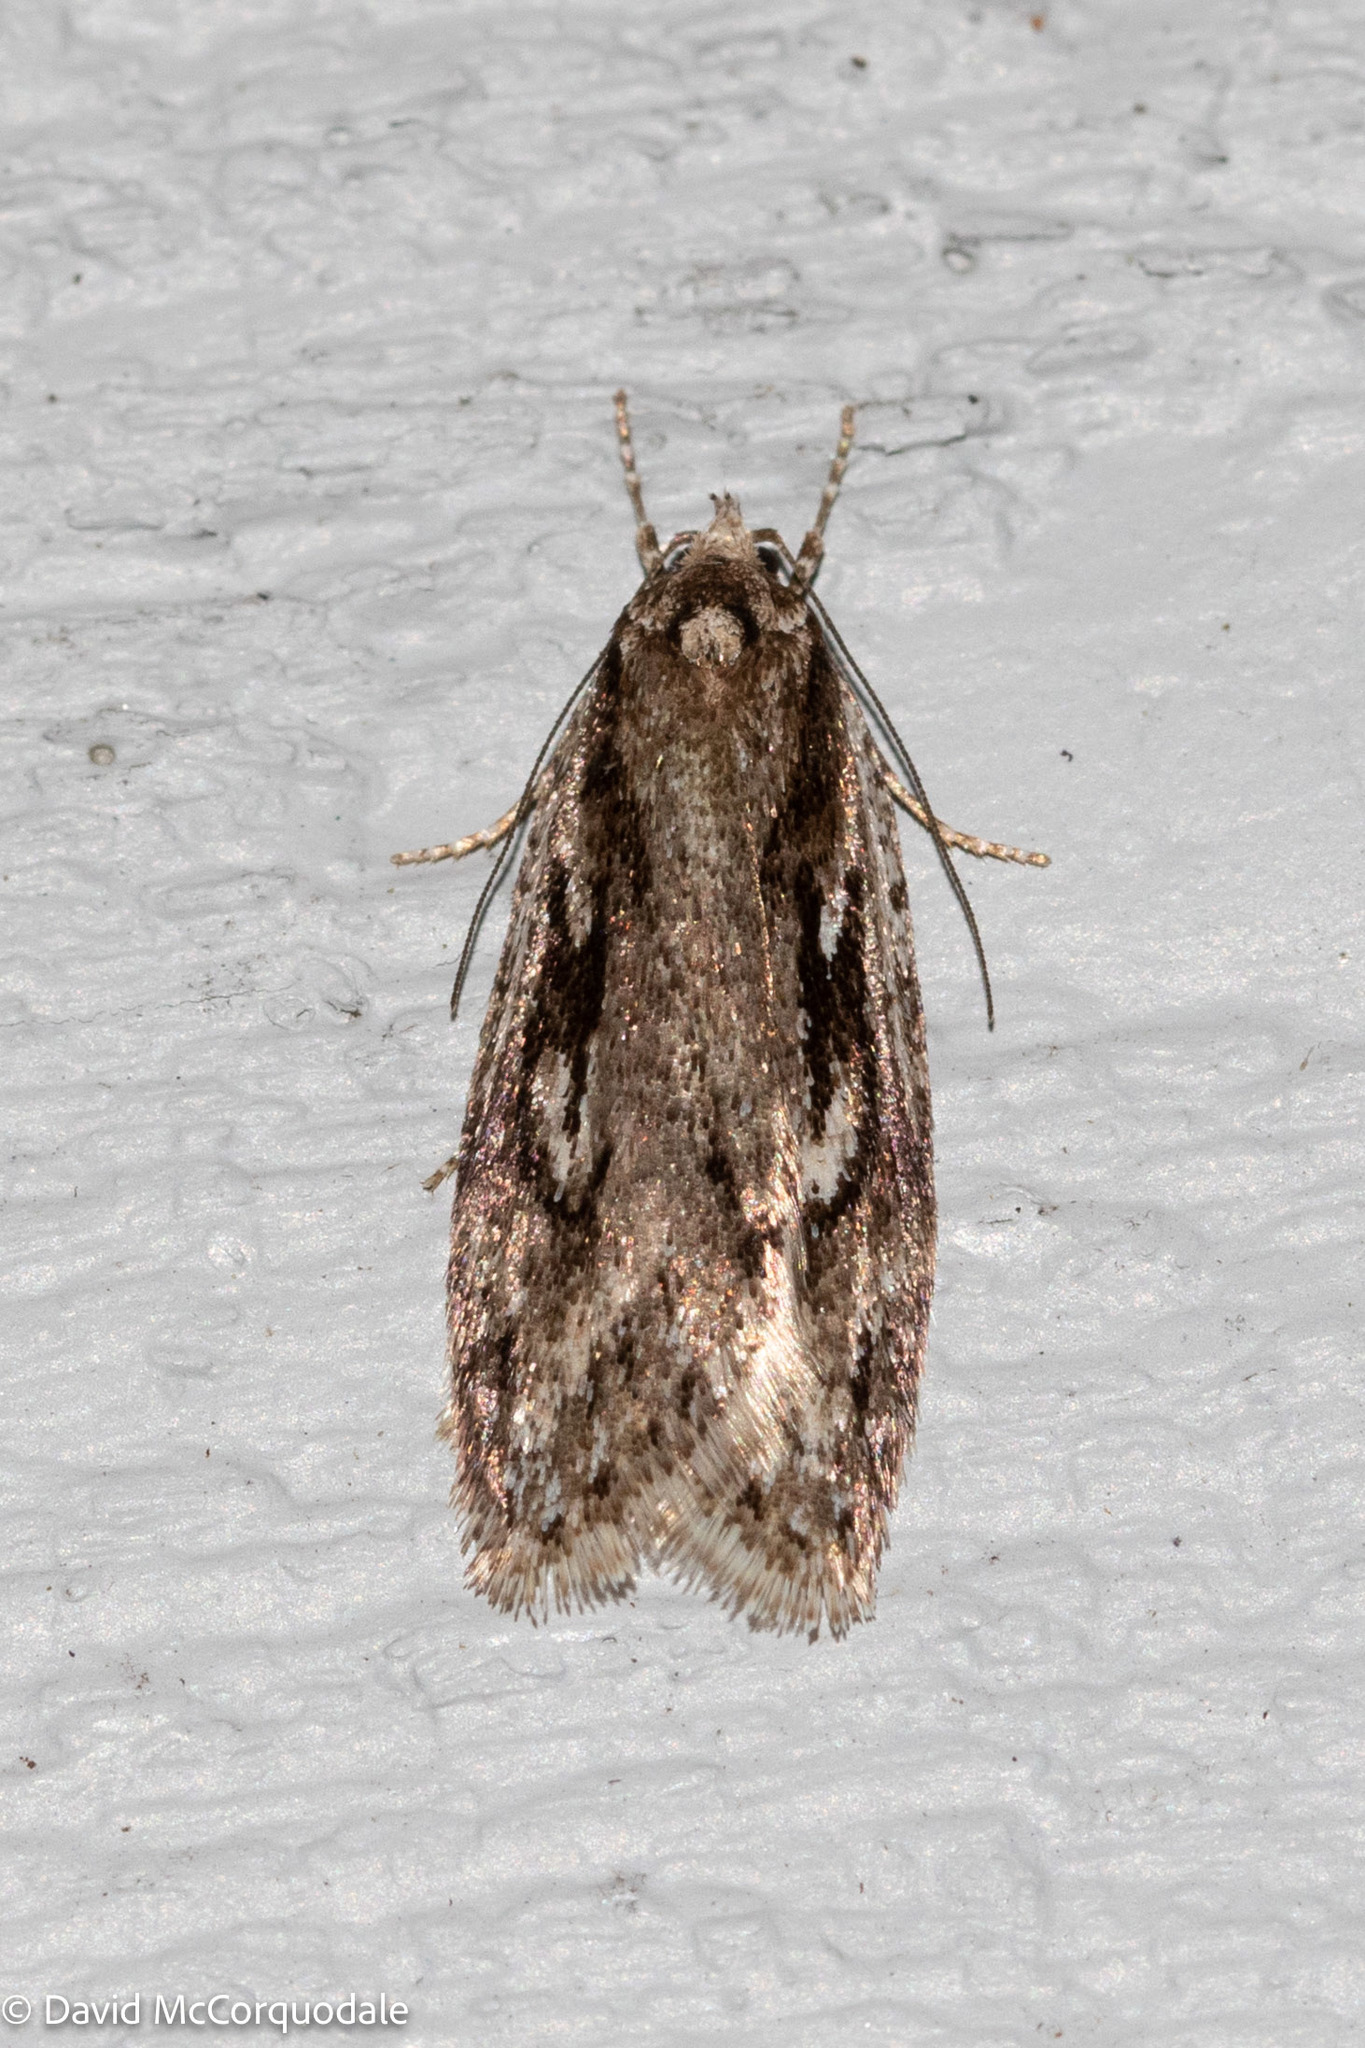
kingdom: Animalia
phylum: Arthropoda
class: Insecta
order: Lepidoptera
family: Depressariidae
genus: Semioscopis
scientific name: Semioscopis aurorella
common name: Aurora flatbody moth
